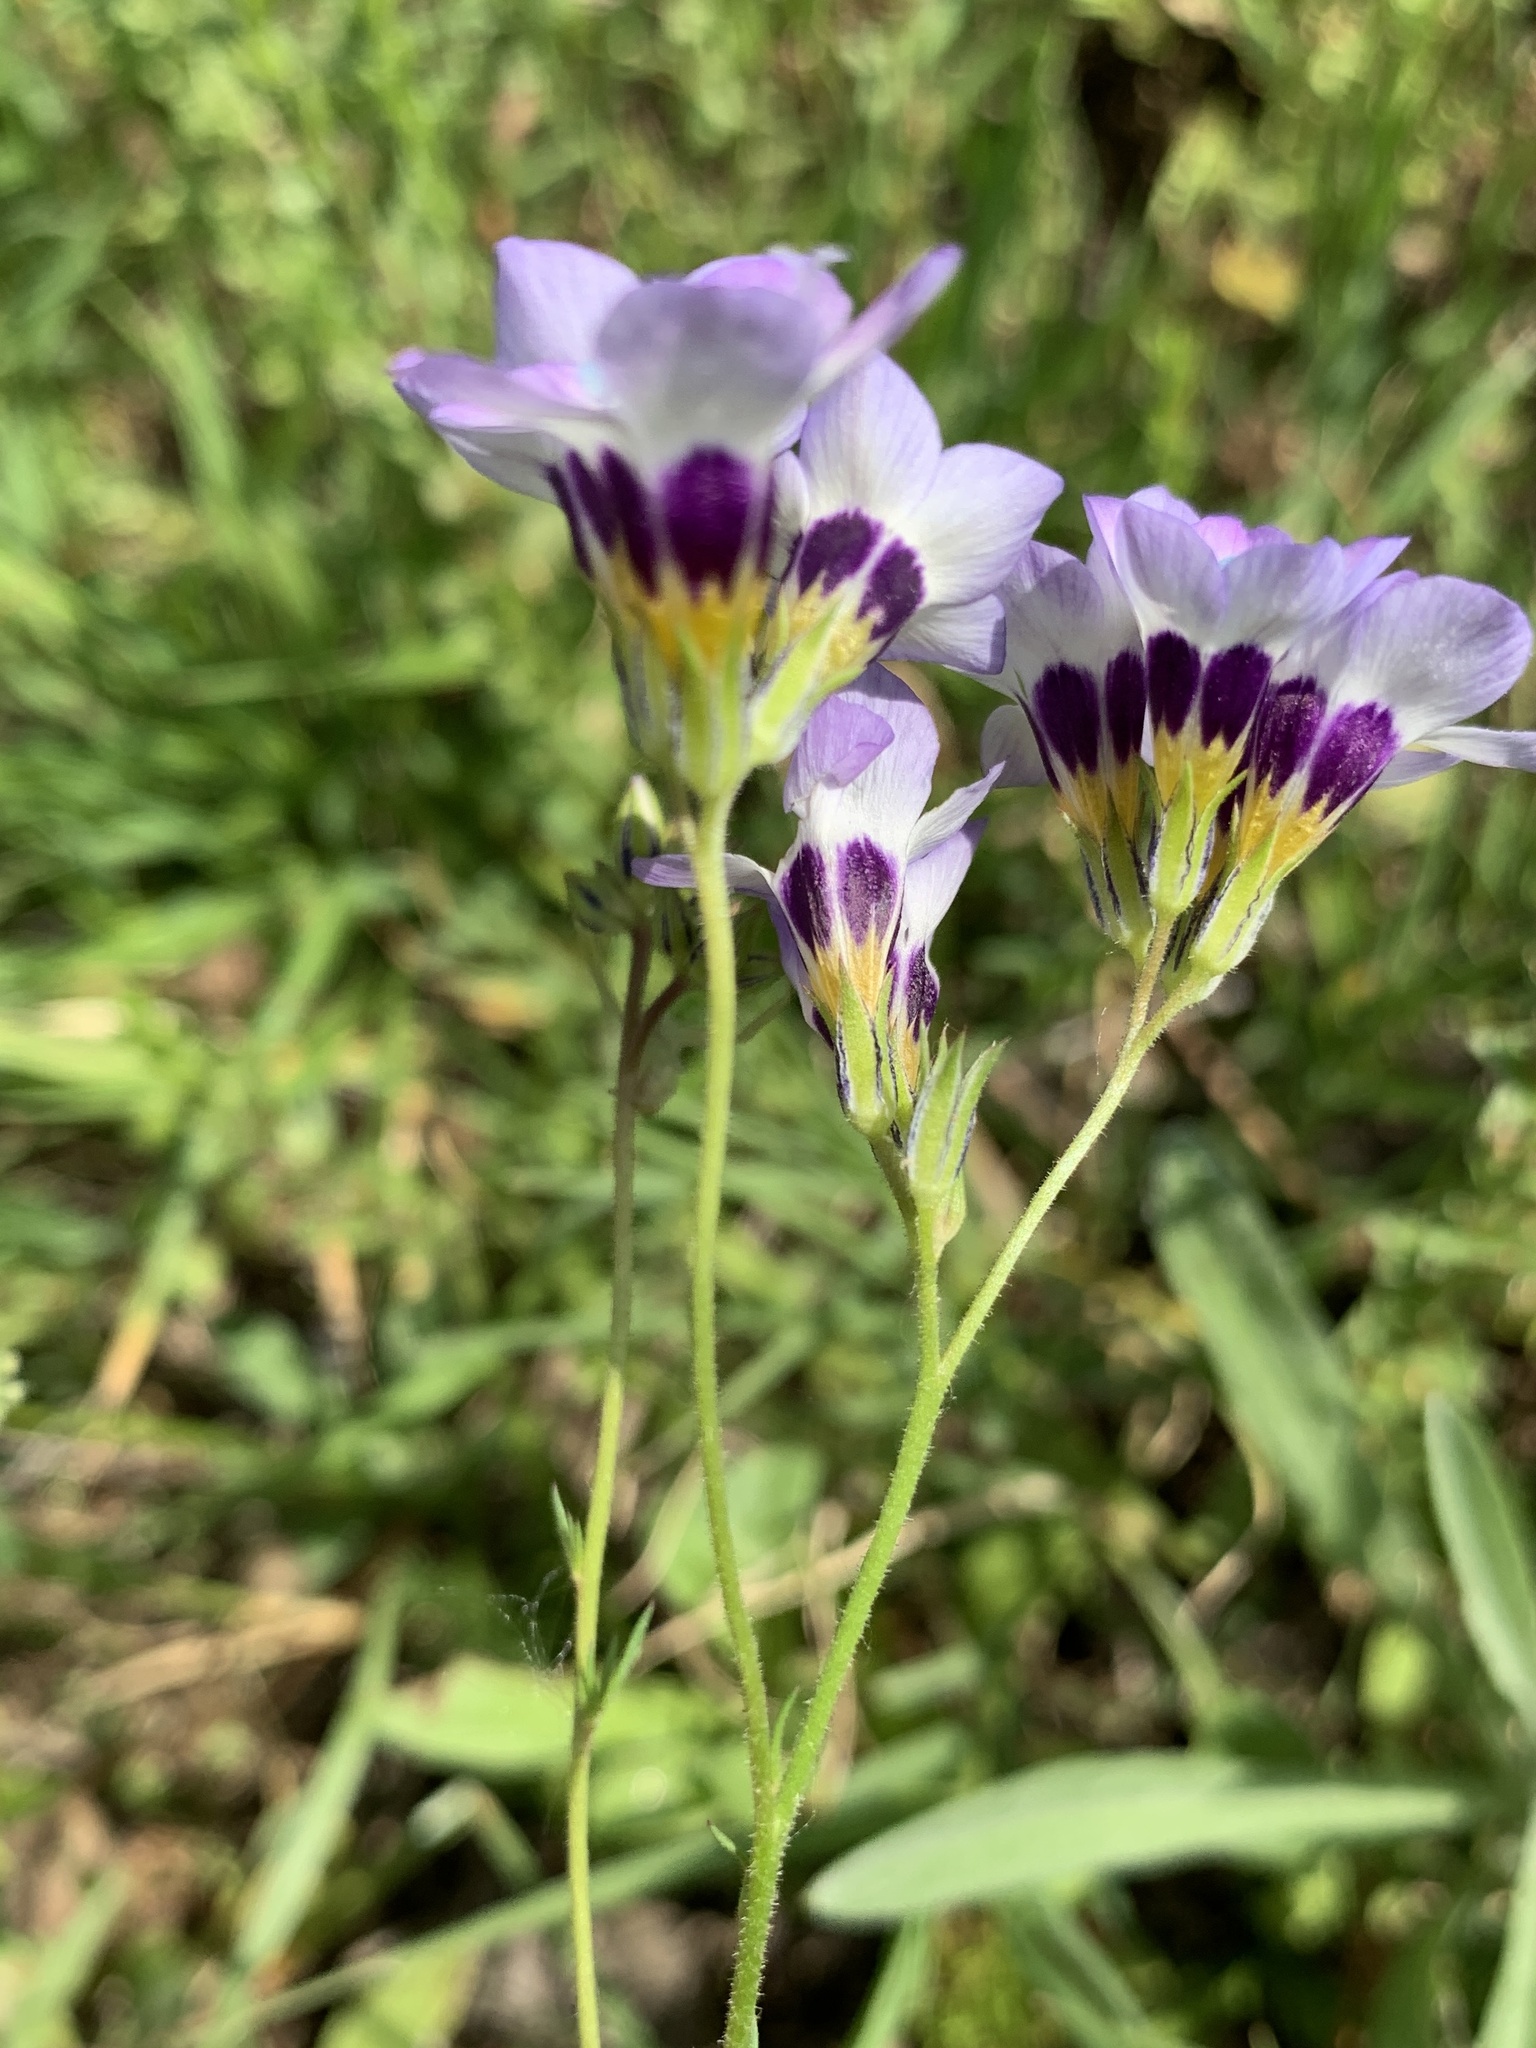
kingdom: Plantae
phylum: Tracheophyta
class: Magnoliopsida
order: Ericales
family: Polemoniaceae
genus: Gilia
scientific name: Gilia tricolor
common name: Bird's-eyes
